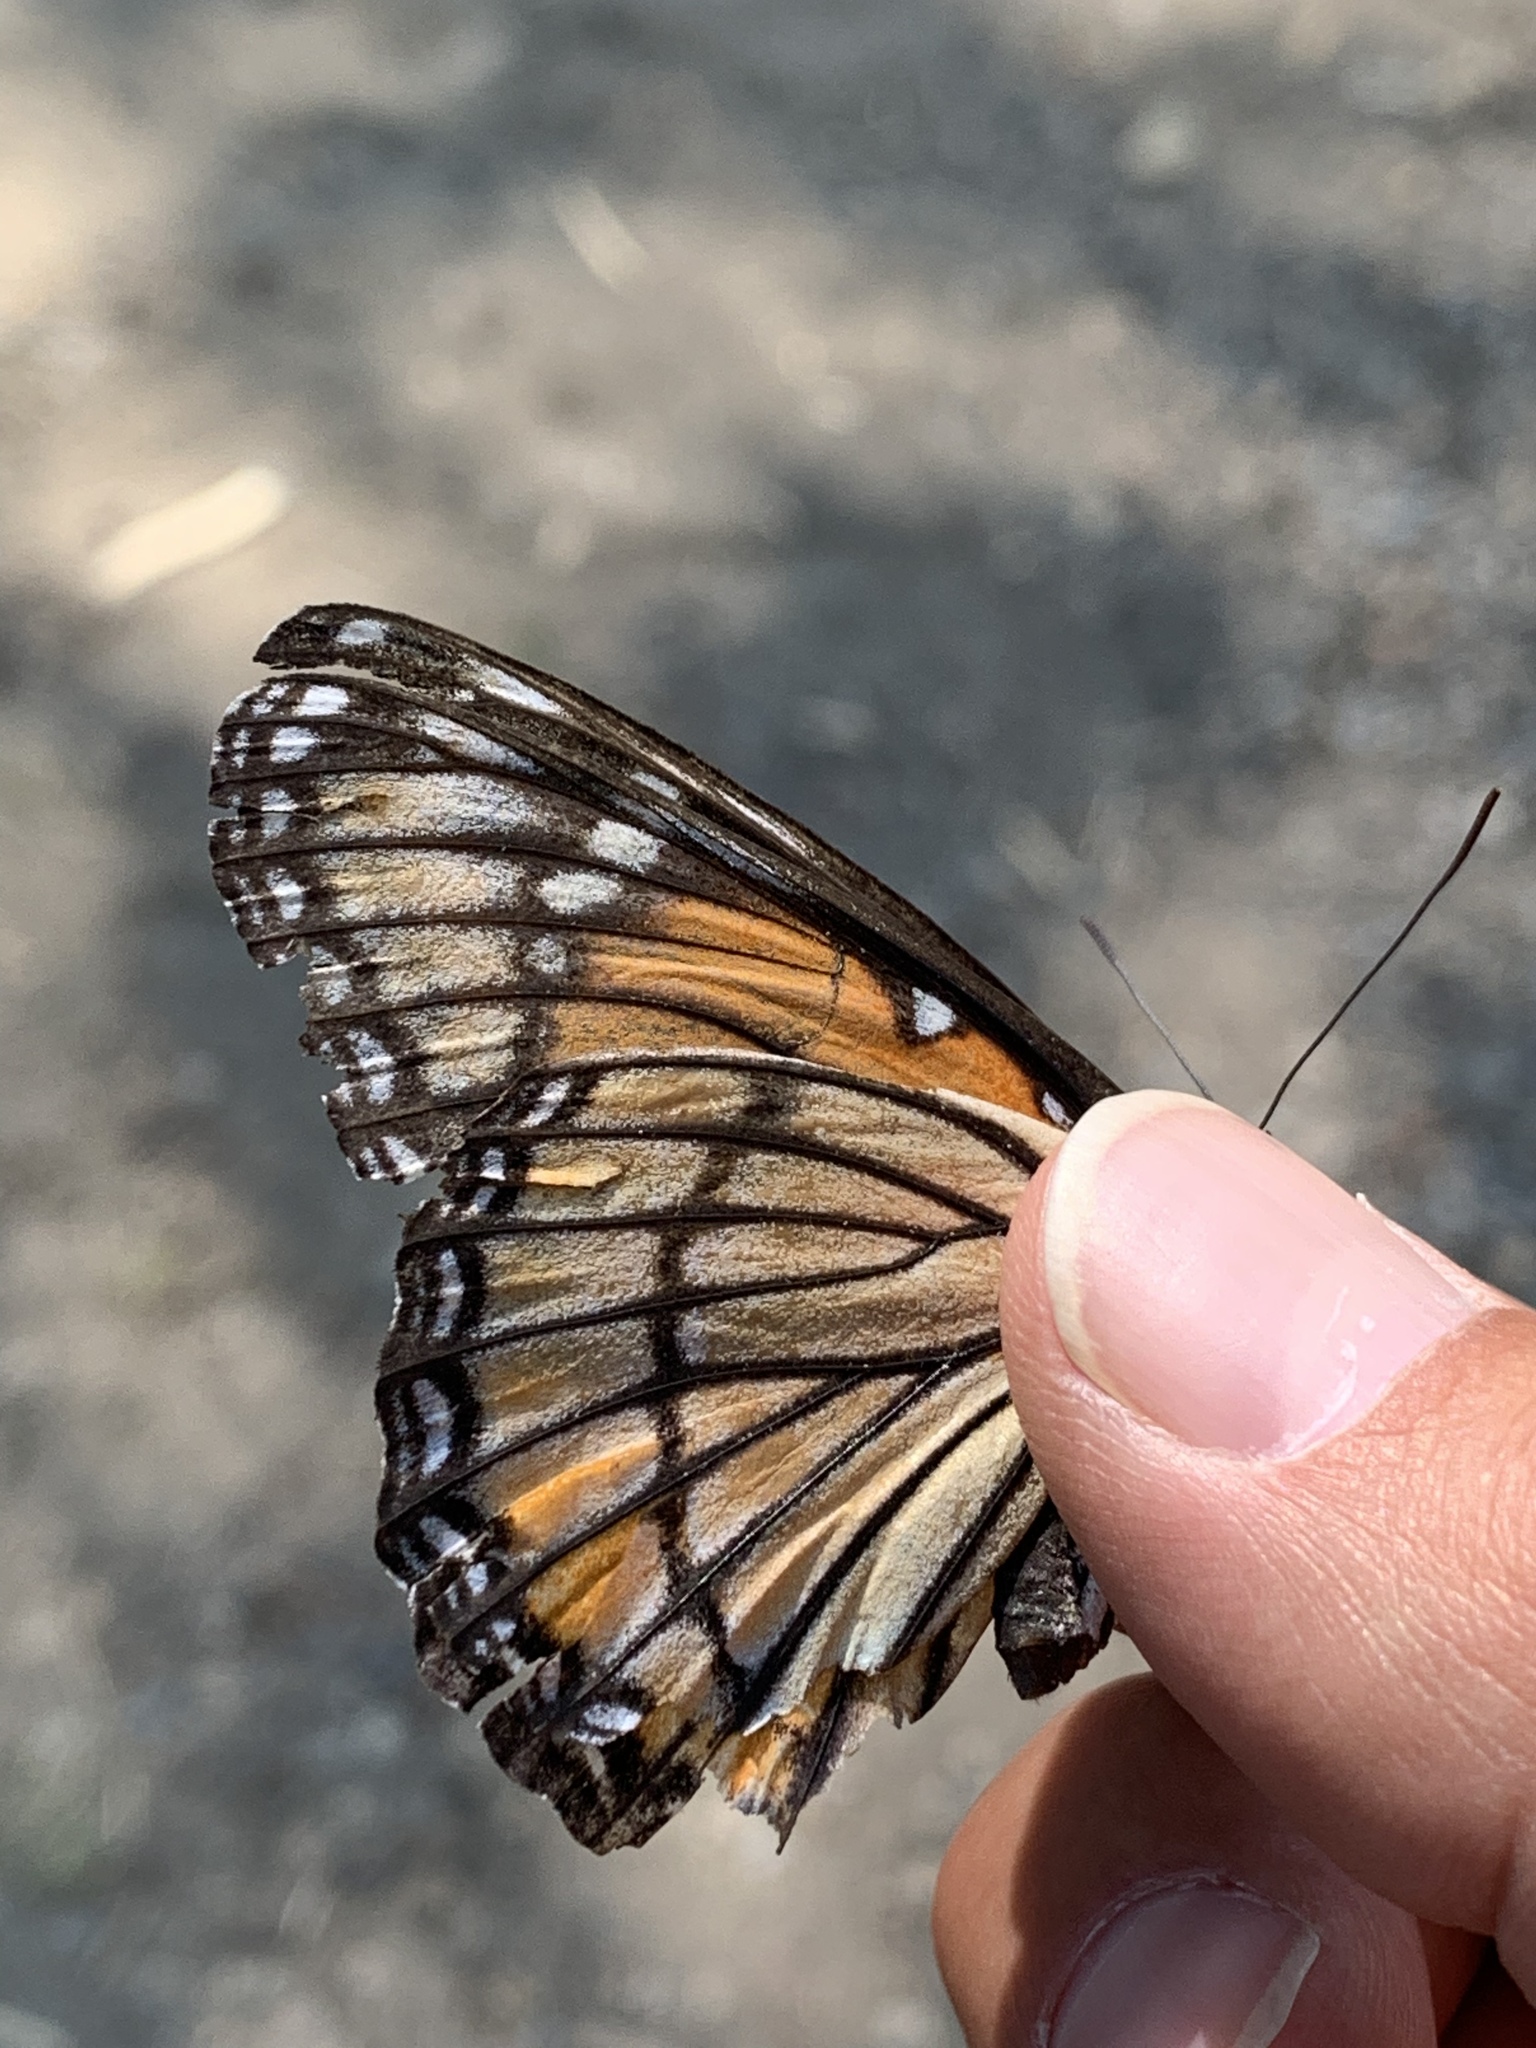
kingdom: Animalia
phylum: Arthropoda
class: Insecta
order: Lepidoptera
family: Nymphalidae
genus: Limenitis
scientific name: Limenitis archippus
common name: Viceroy
